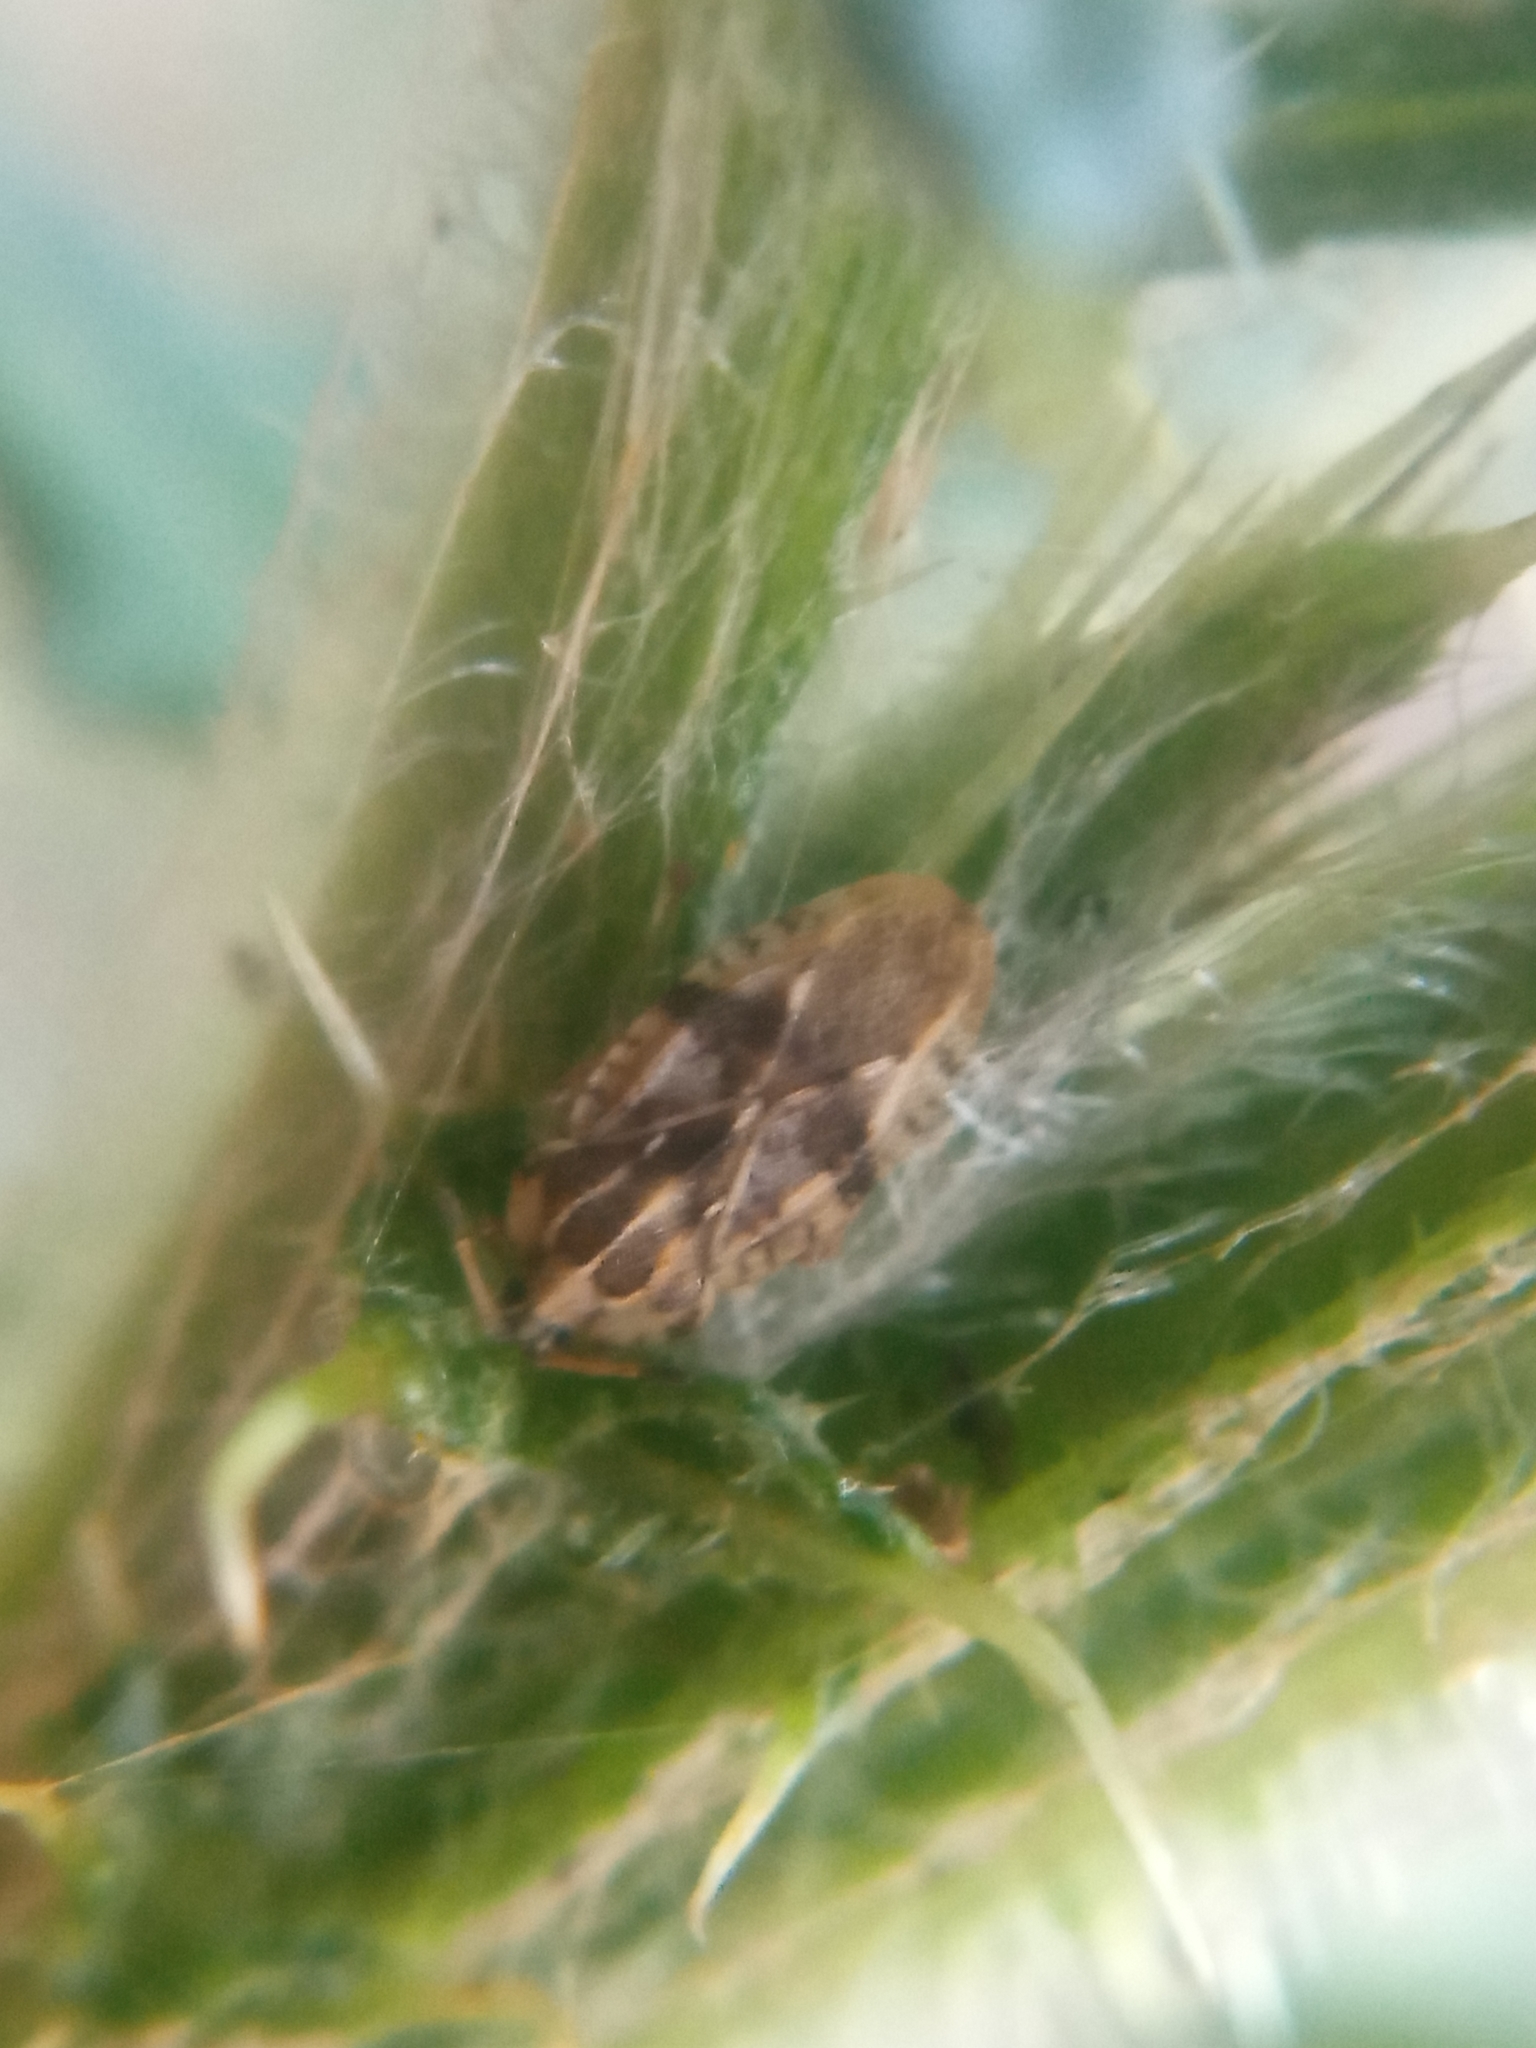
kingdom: Animalia
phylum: Arthropoda
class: Insecta
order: Hemiptera
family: Tingidae
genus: Tingis
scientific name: Tingis cardui
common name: Spear thistle lacebug
